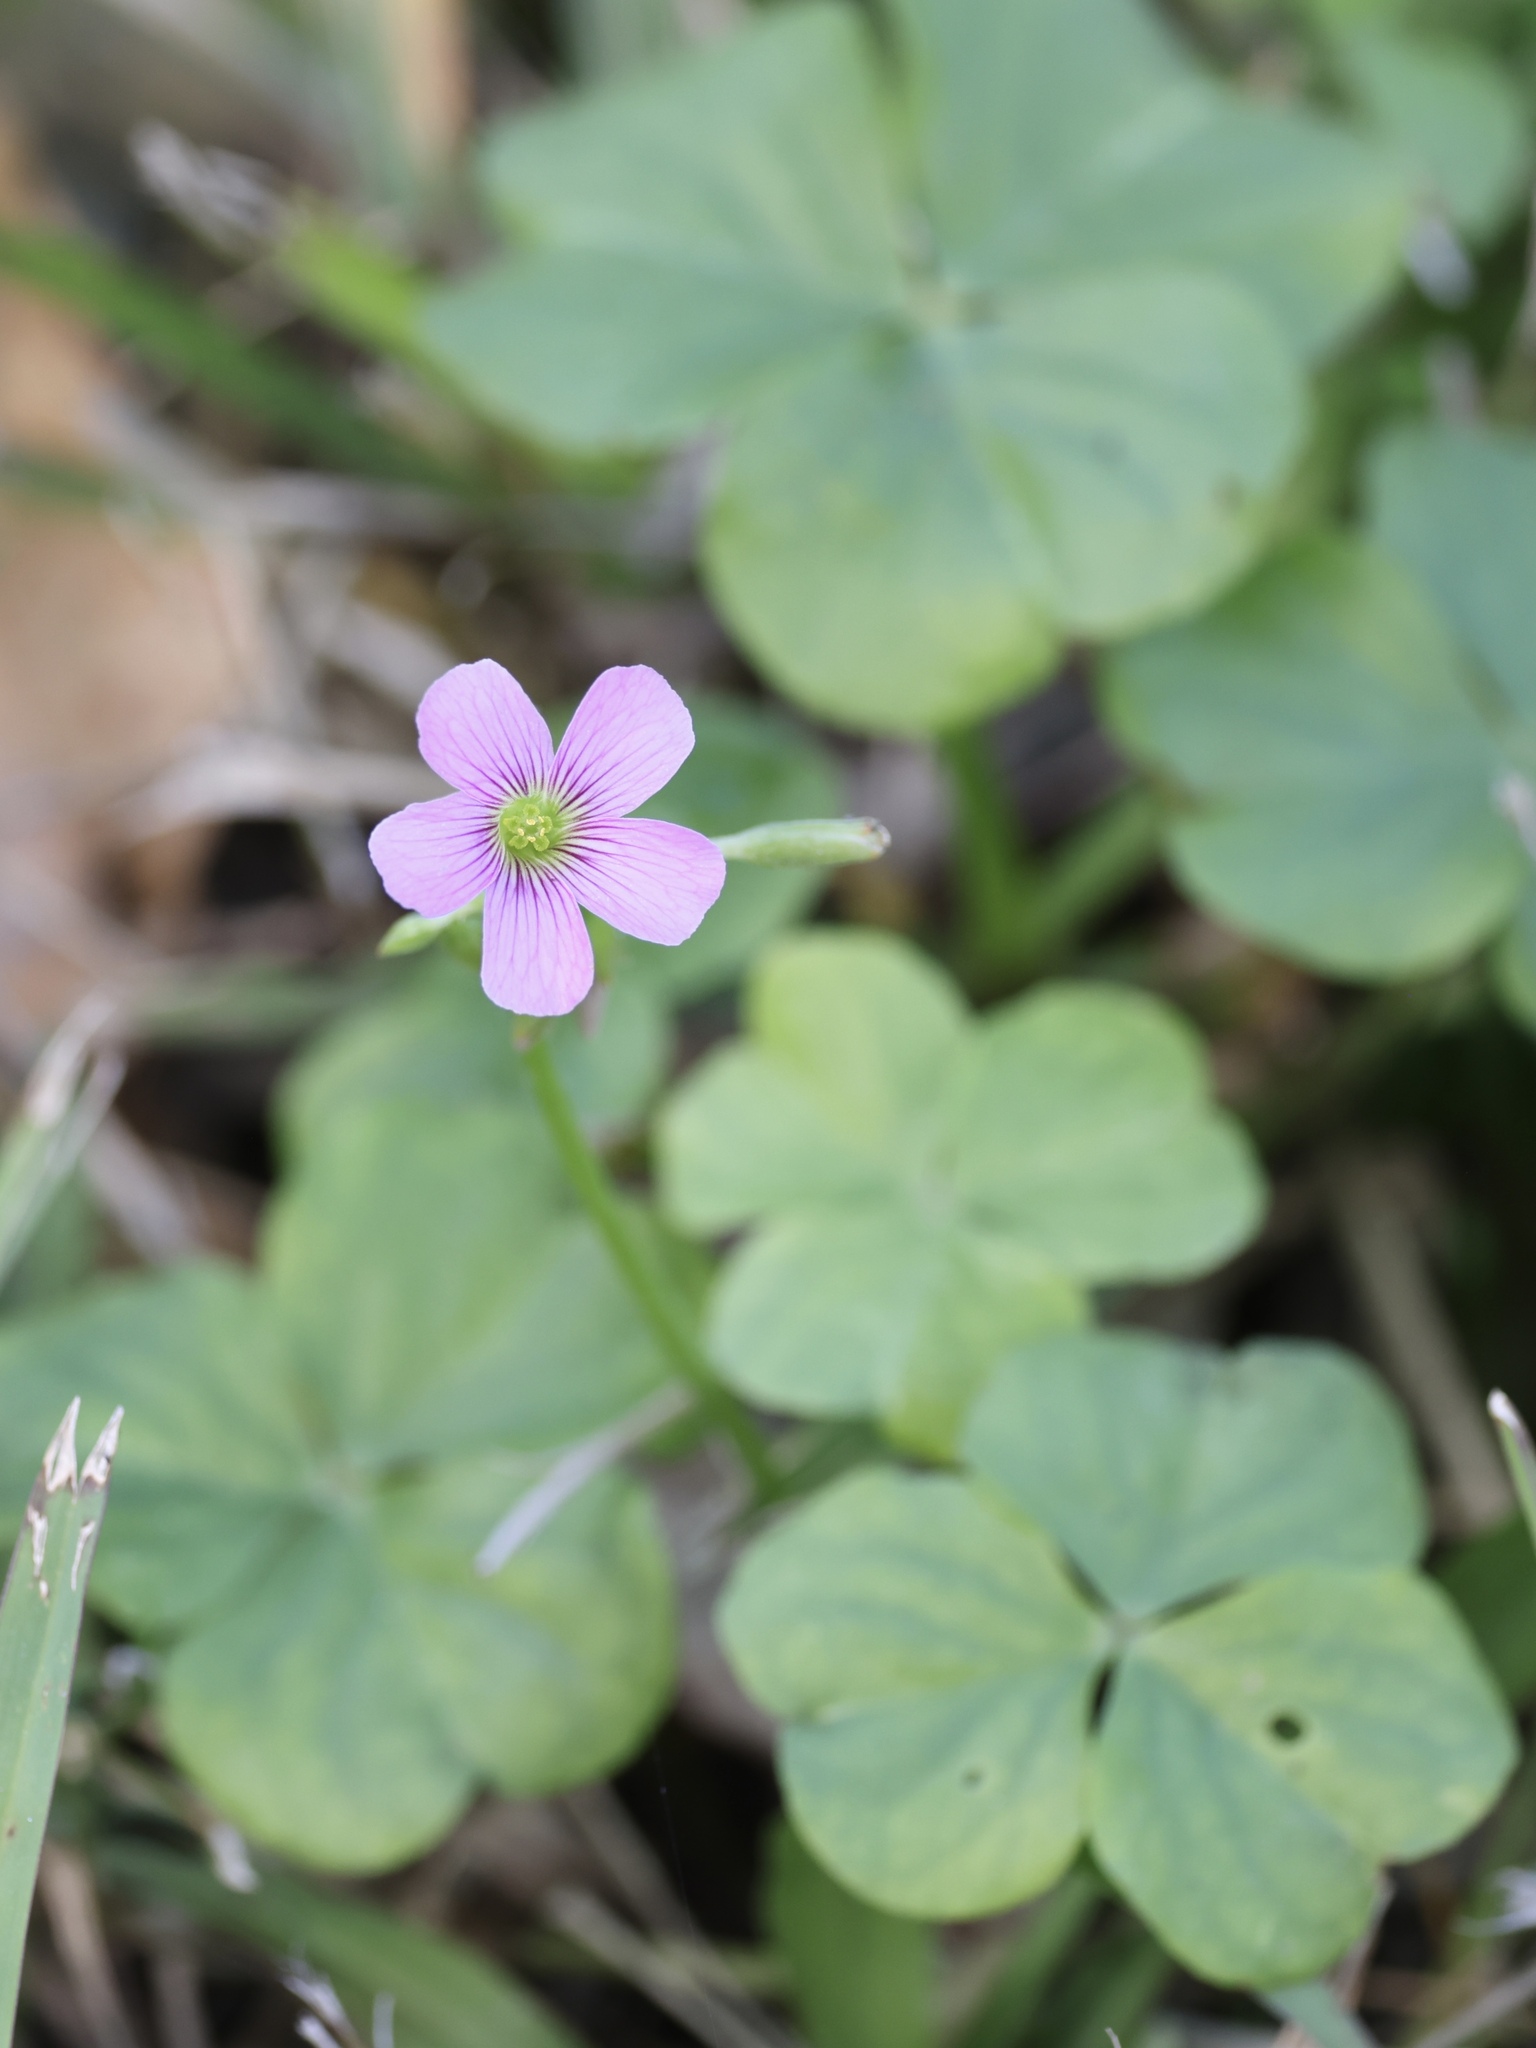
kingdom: Plantae
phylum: Tracheophyta
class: Magnoliopsida
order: Oxalidales
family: Oxalidaceae
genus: Oxalis
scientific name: Oxalis debilis
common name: Large-flowered pink-sorrel
